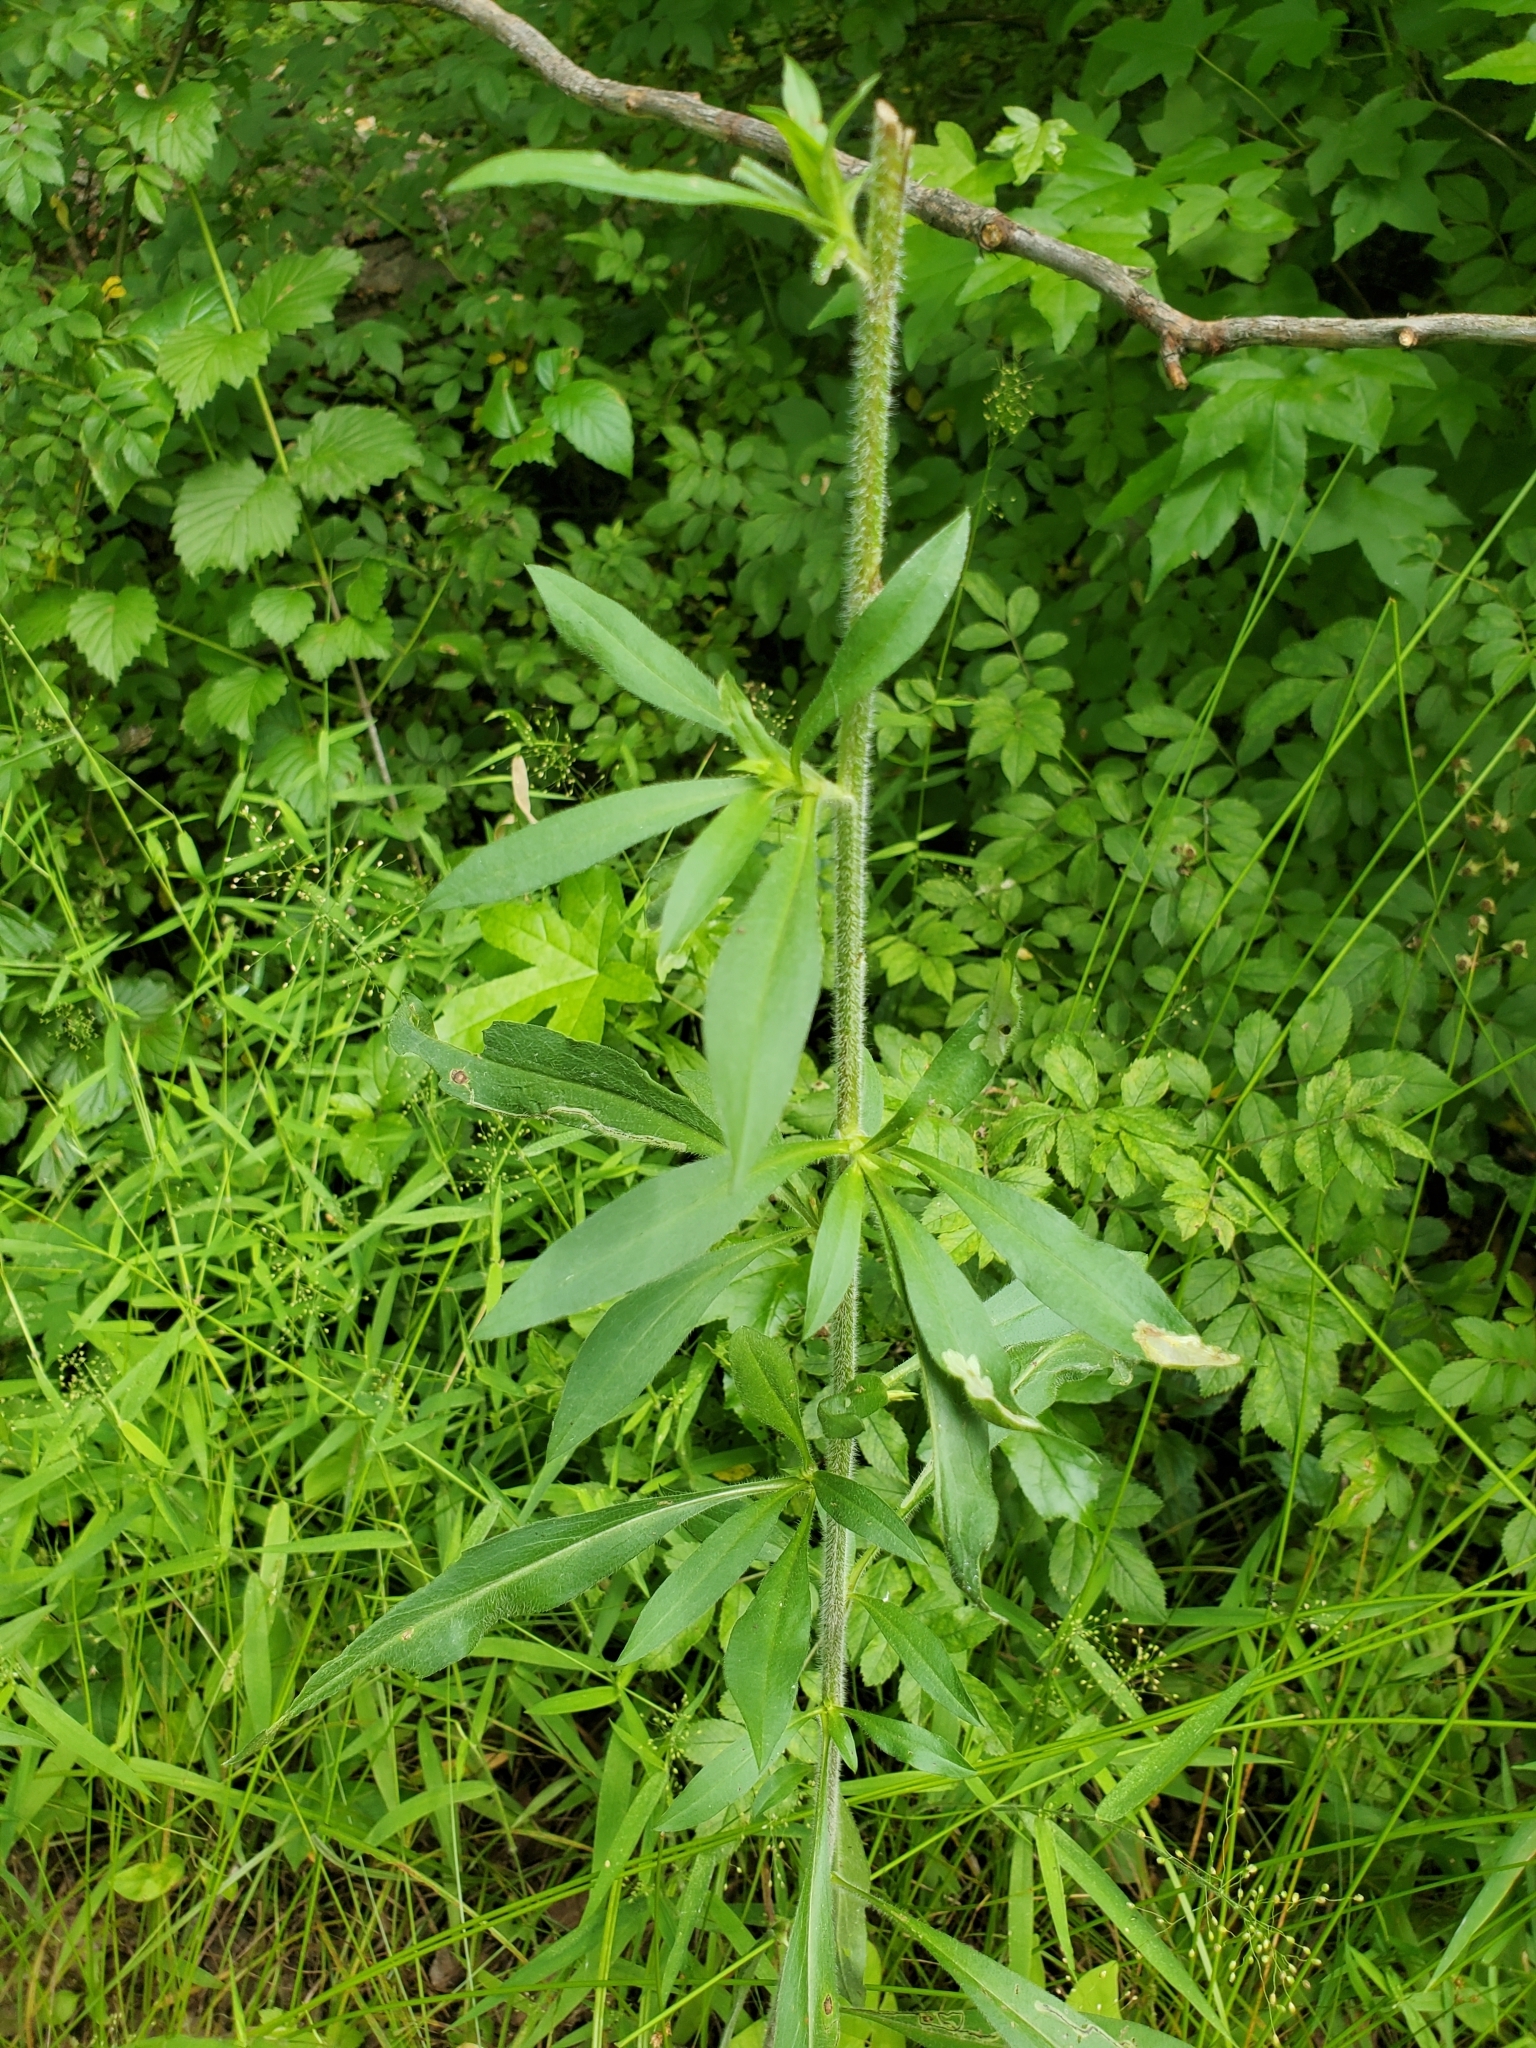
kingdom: Plantae
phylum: Tracheophyta
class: Magnoliopsida
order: Asterales
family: Asteraceae
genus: Symphyotrichum
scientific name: Symphyotrichum pilosum
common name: Awl aster
